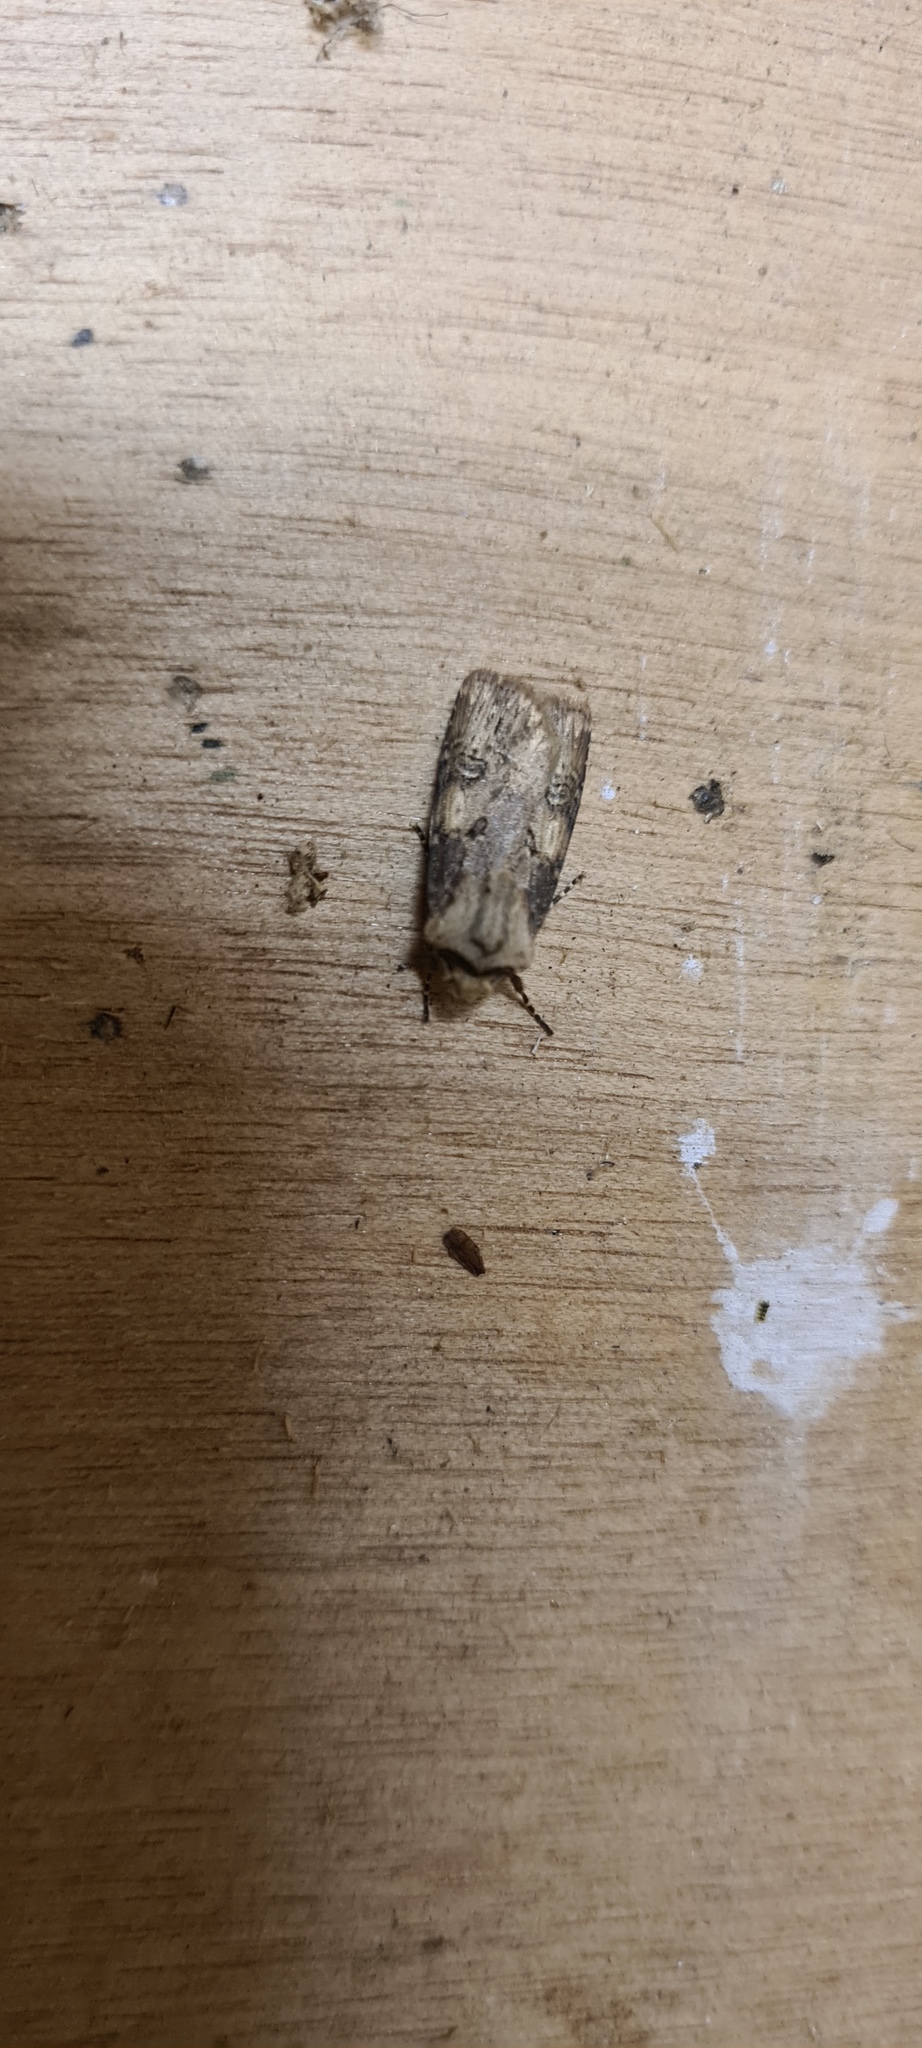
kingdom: Animalia
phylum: Arthropoda
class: Insecta
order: Lepidoptera
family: Noctuidae
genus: Agrotis
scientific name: Agrotis puta
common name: Shuttle-shaped dart
